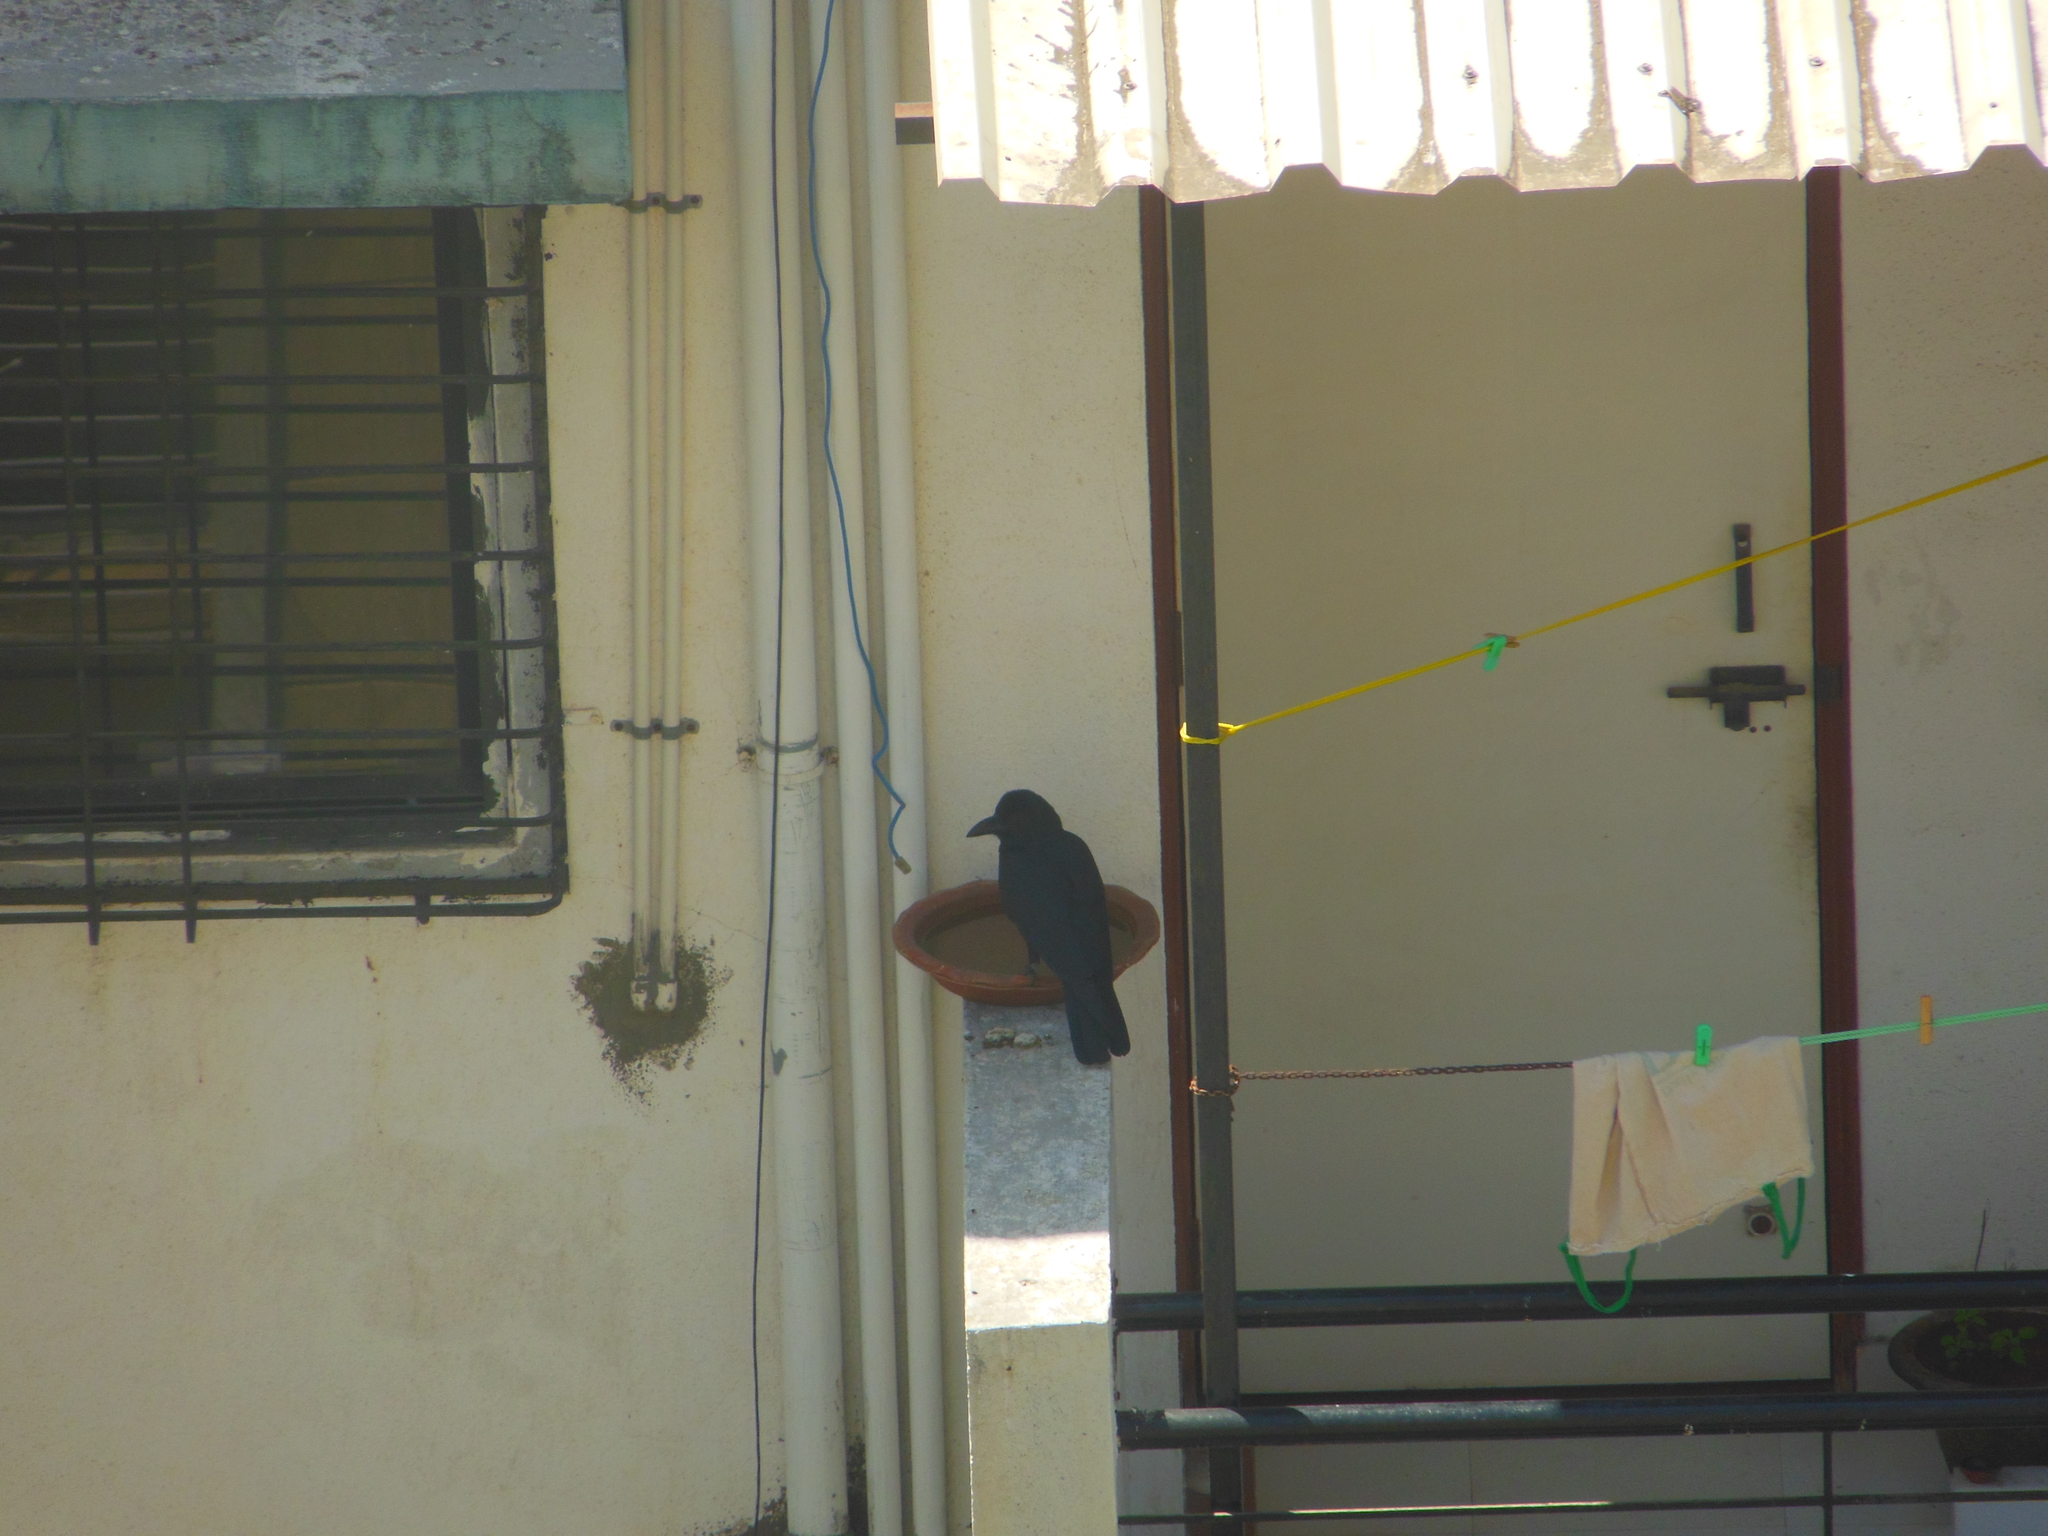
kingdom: Animalia
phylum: Chordata
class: Aves
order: Passeriformes
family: Corvidae
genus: Corvus
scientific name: Corvus macrorhynchos
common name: Large-billed crow
